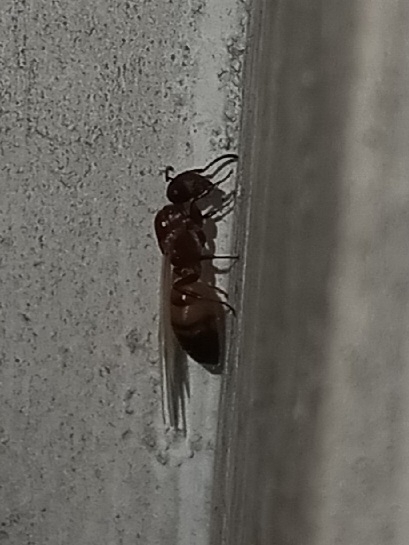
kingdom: Animalia
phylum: Arthropoda
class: Insecta
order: Hymenoptera
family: Formicidae
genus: Colobopsis
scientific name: Colobopsis impressa
